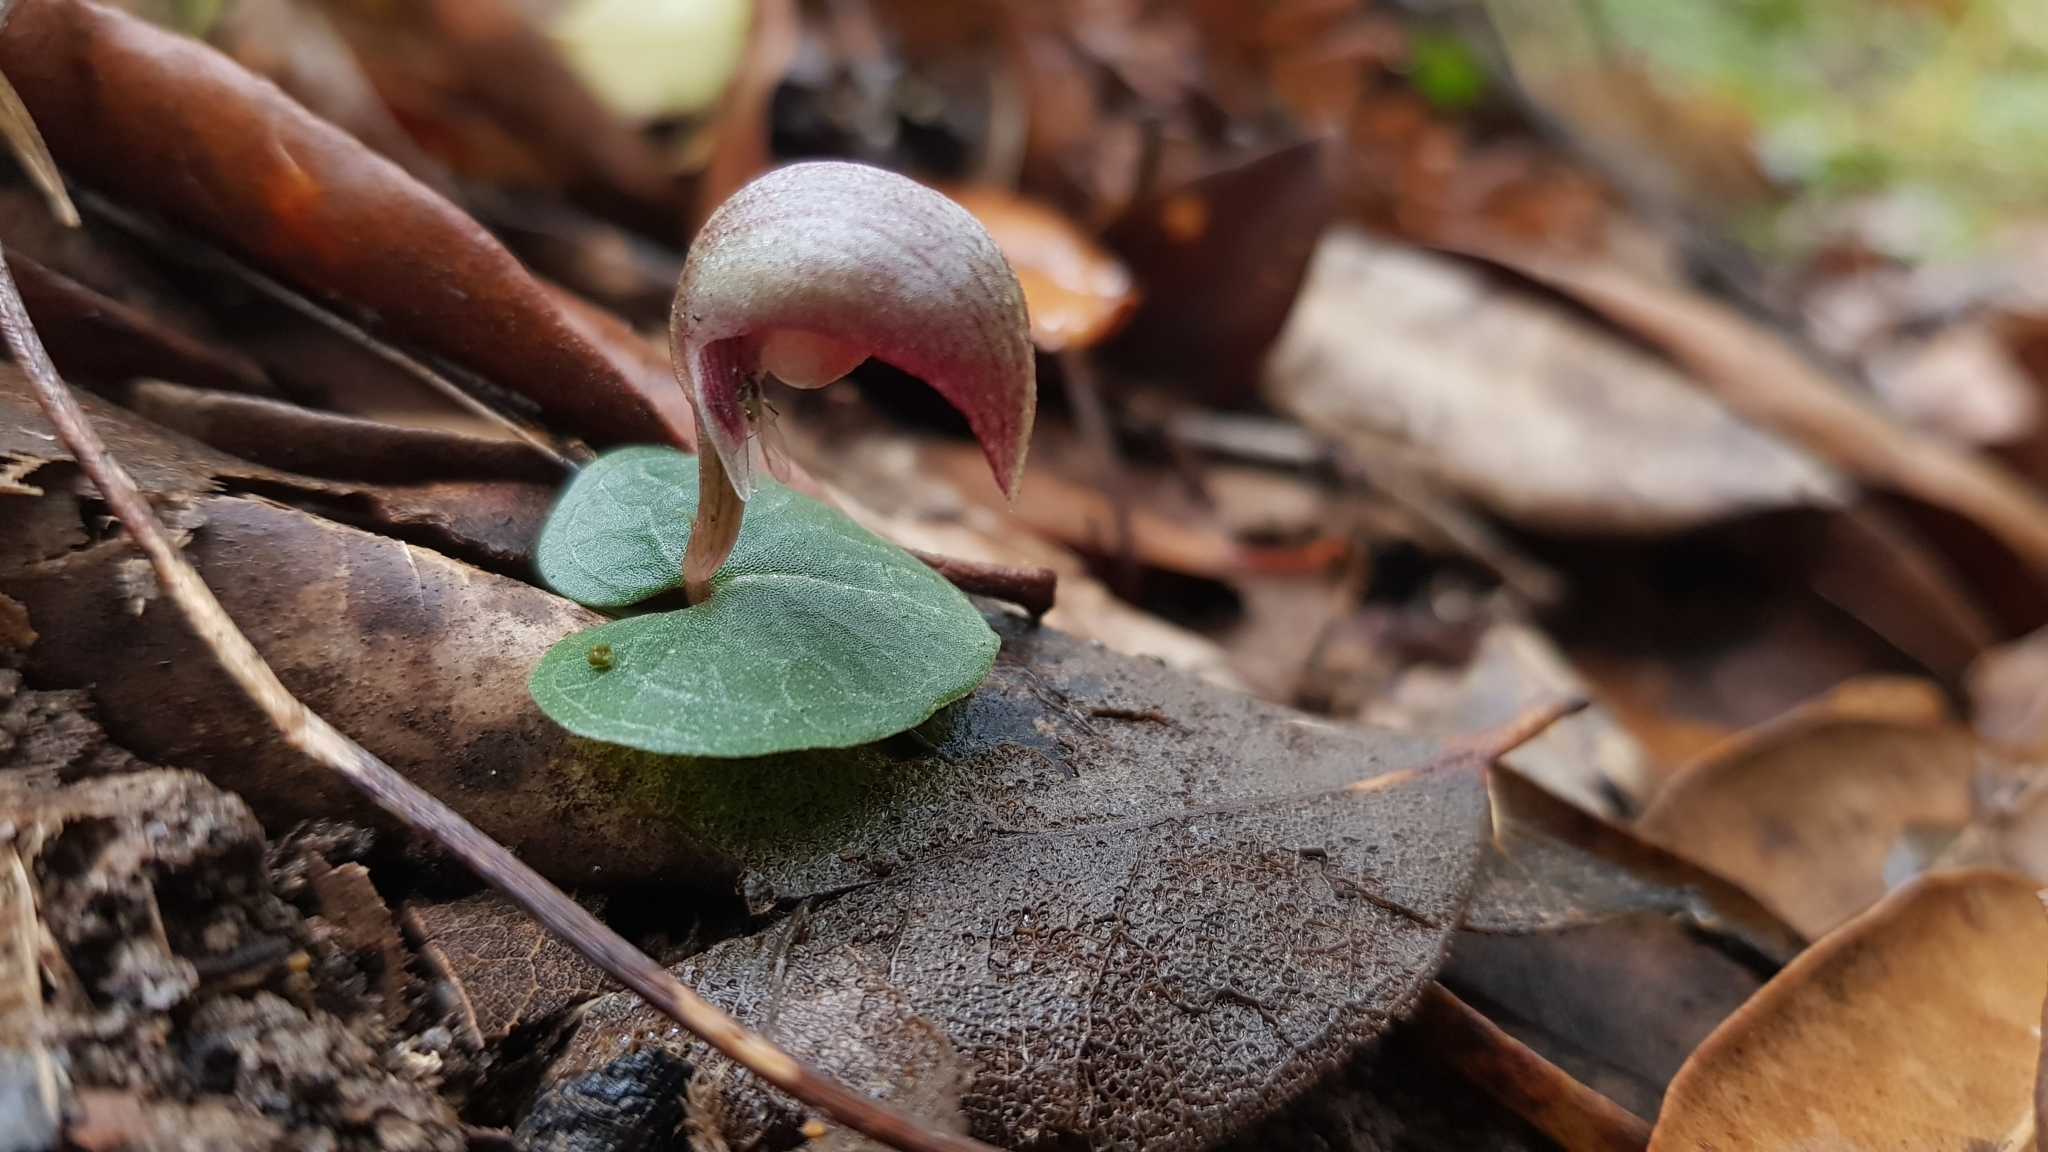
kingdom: Plantae
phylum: Tracheophyta
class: Liliopsida
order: Asparagales
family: Orchidaceae
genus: Corybas
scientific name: Corybas aconitiflorus
